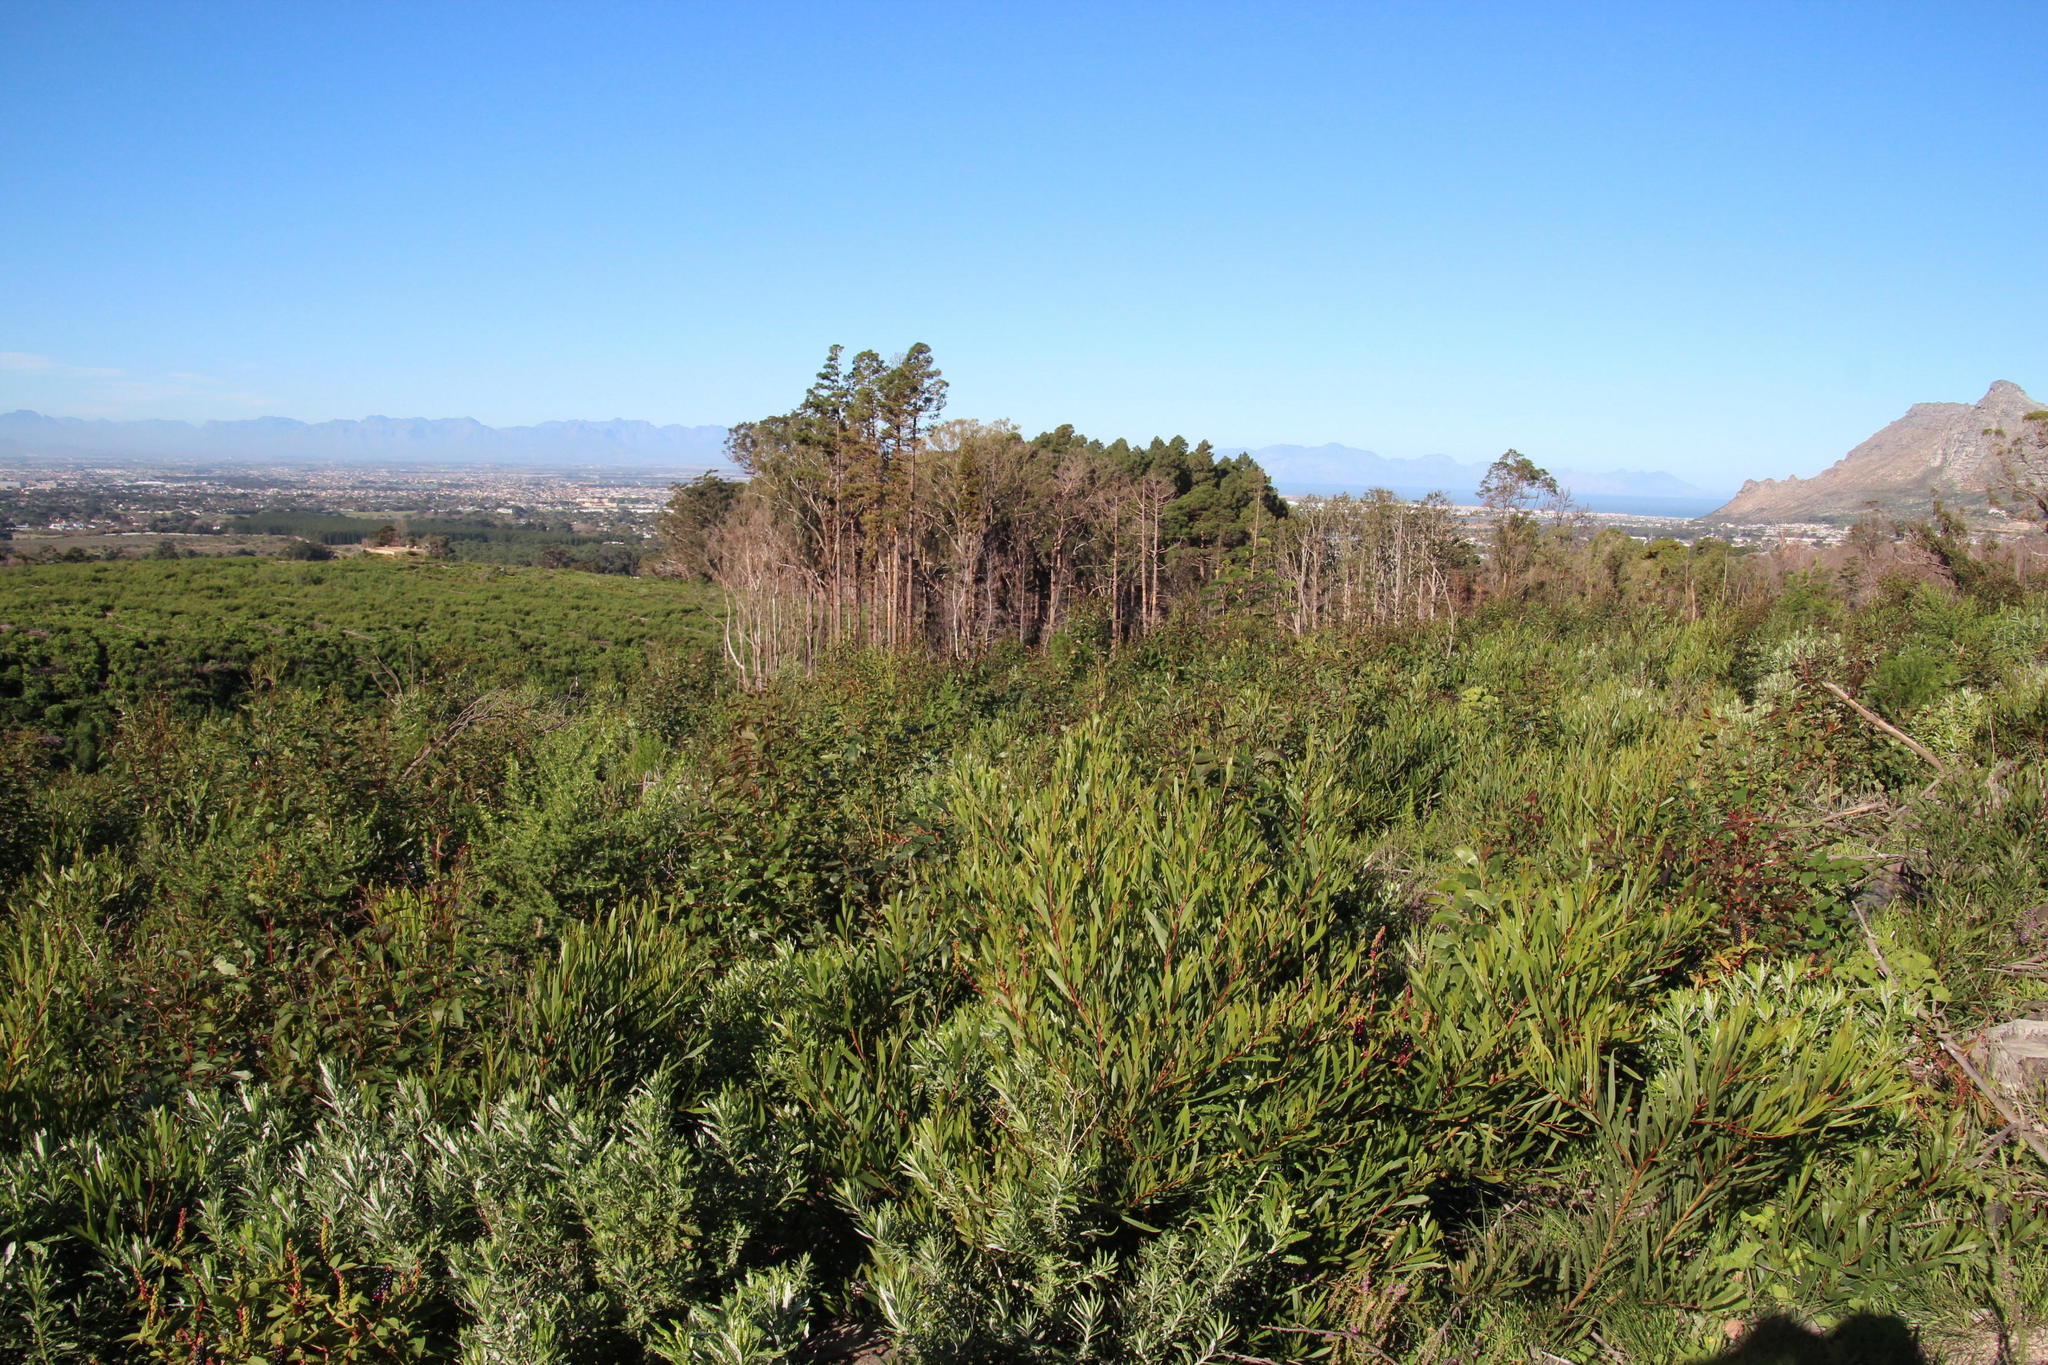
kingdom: Plantae
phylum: Tracheophyta
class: Magnoliopsida
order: Fabales
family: Fabaceae
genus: Acacia
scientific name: Acacia longifolia
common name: Sydney golden wattle
